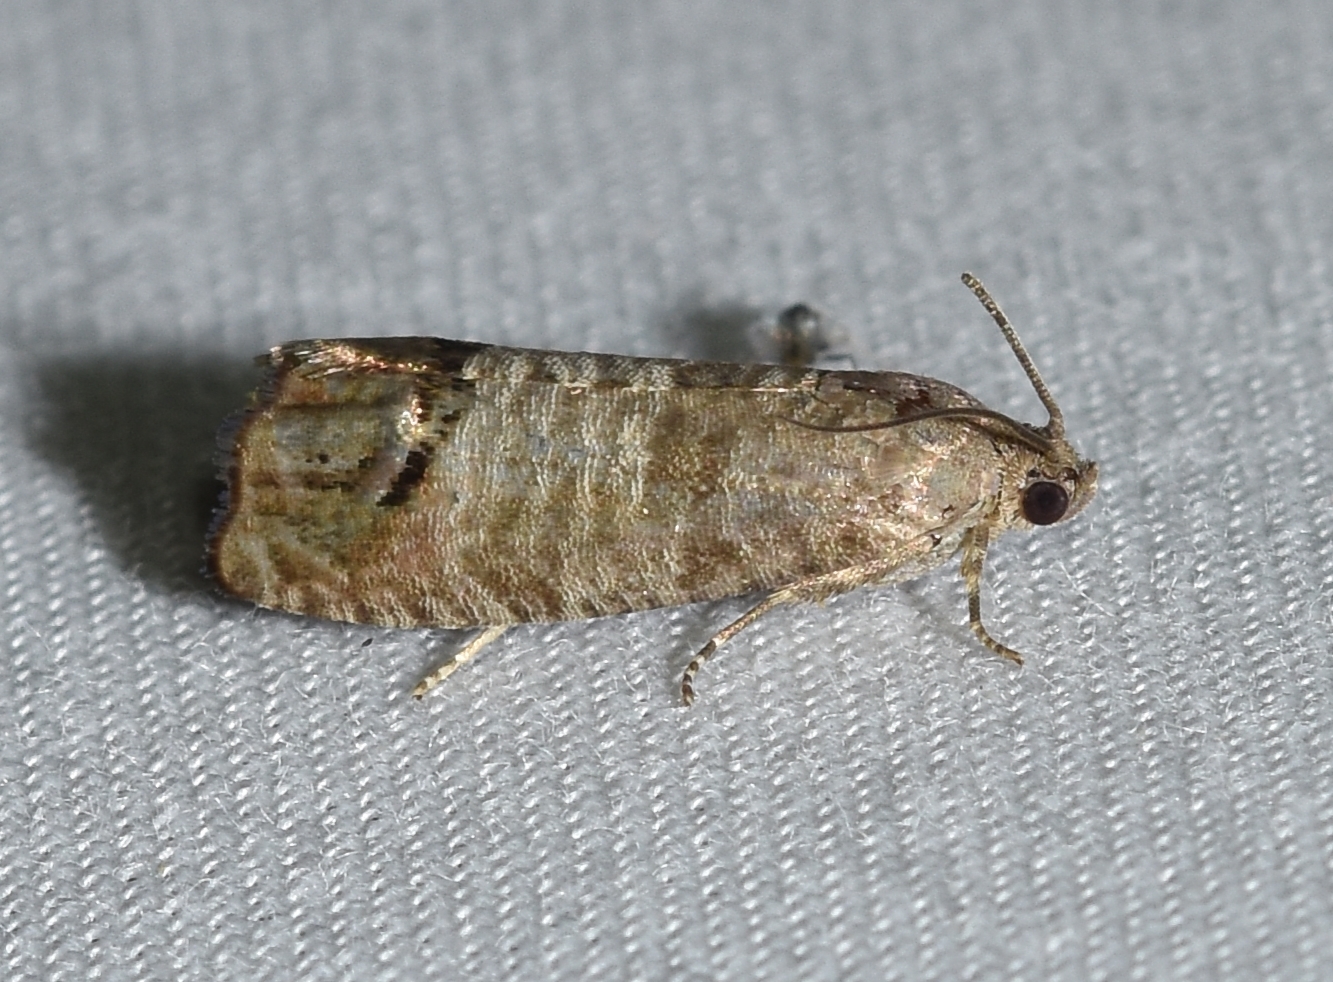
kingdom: Animalia
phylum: Arthropoda
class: Insecta
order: Lepidoptera
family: Tortricidae
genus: Cydia
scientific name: Cydia pomonella
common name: Codling moth
